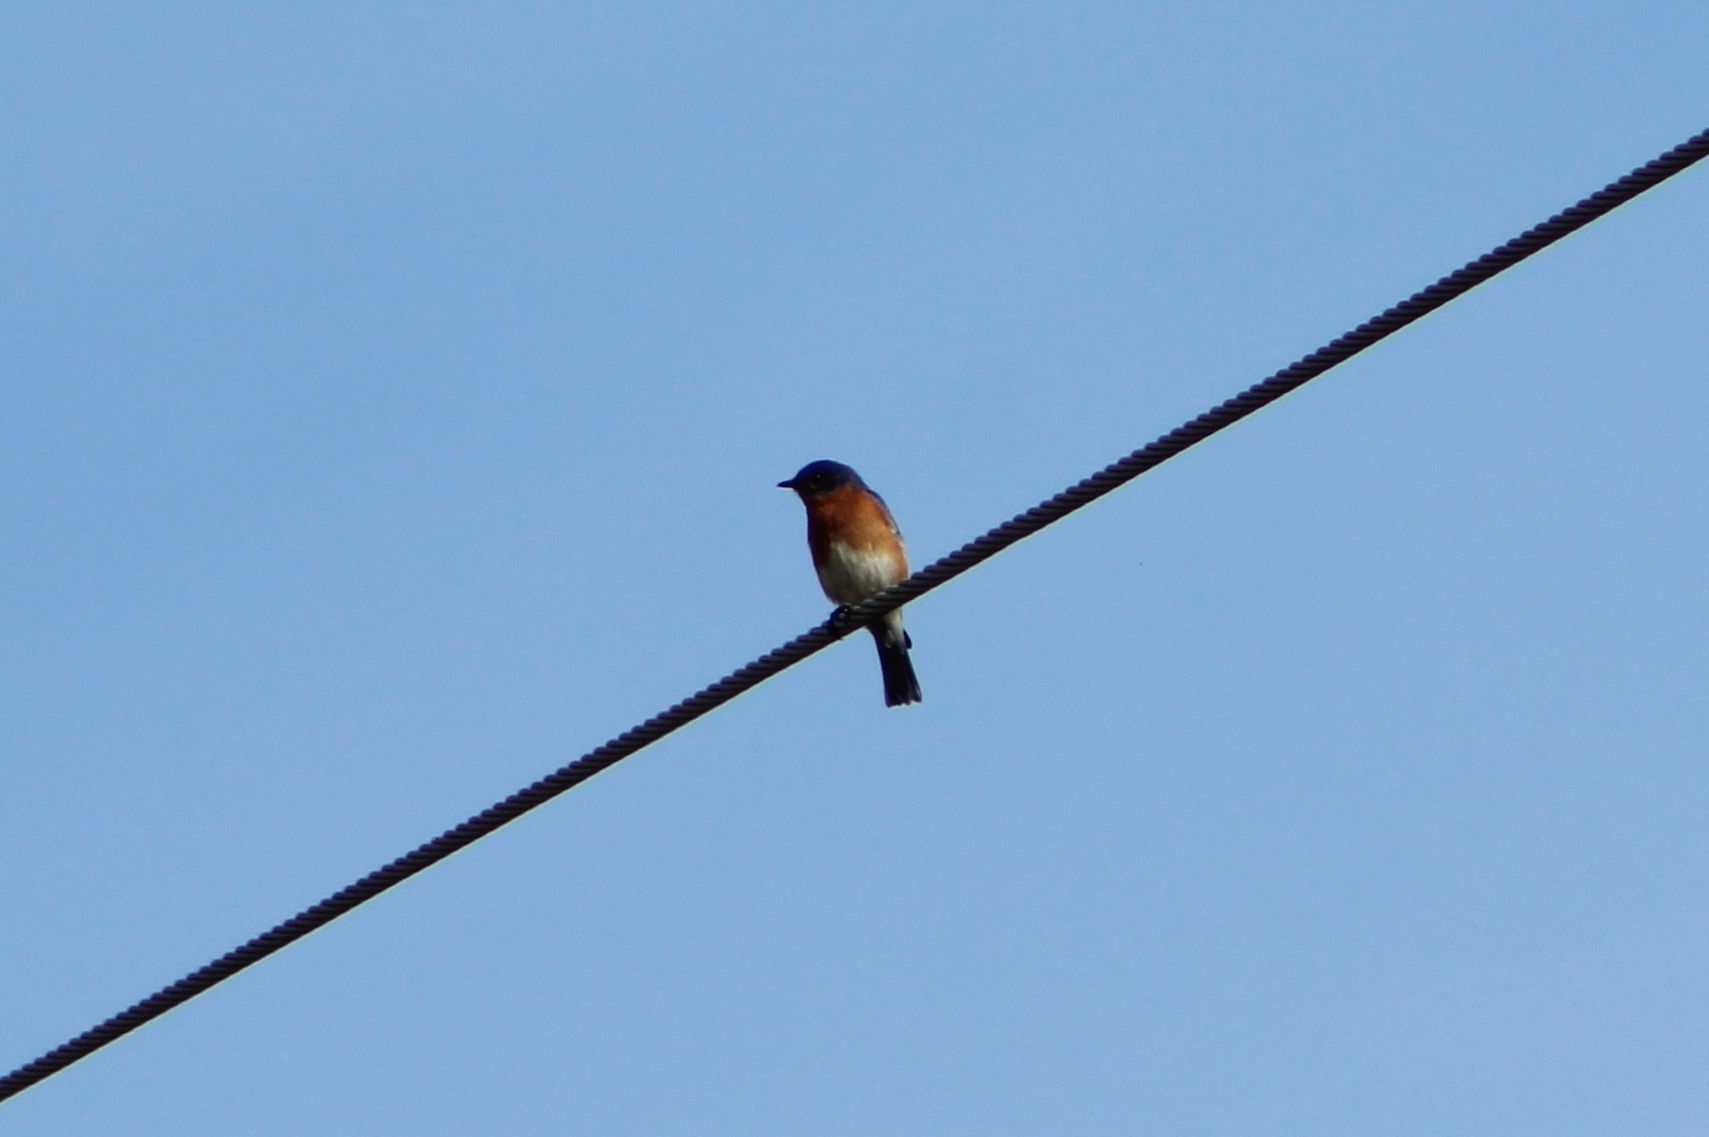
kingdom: Animalia
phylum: Chordata
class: Aves
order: Passeriformes
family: Turdidae
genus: Sialia
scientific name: Sialia sialis
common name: Eastern bluebird
